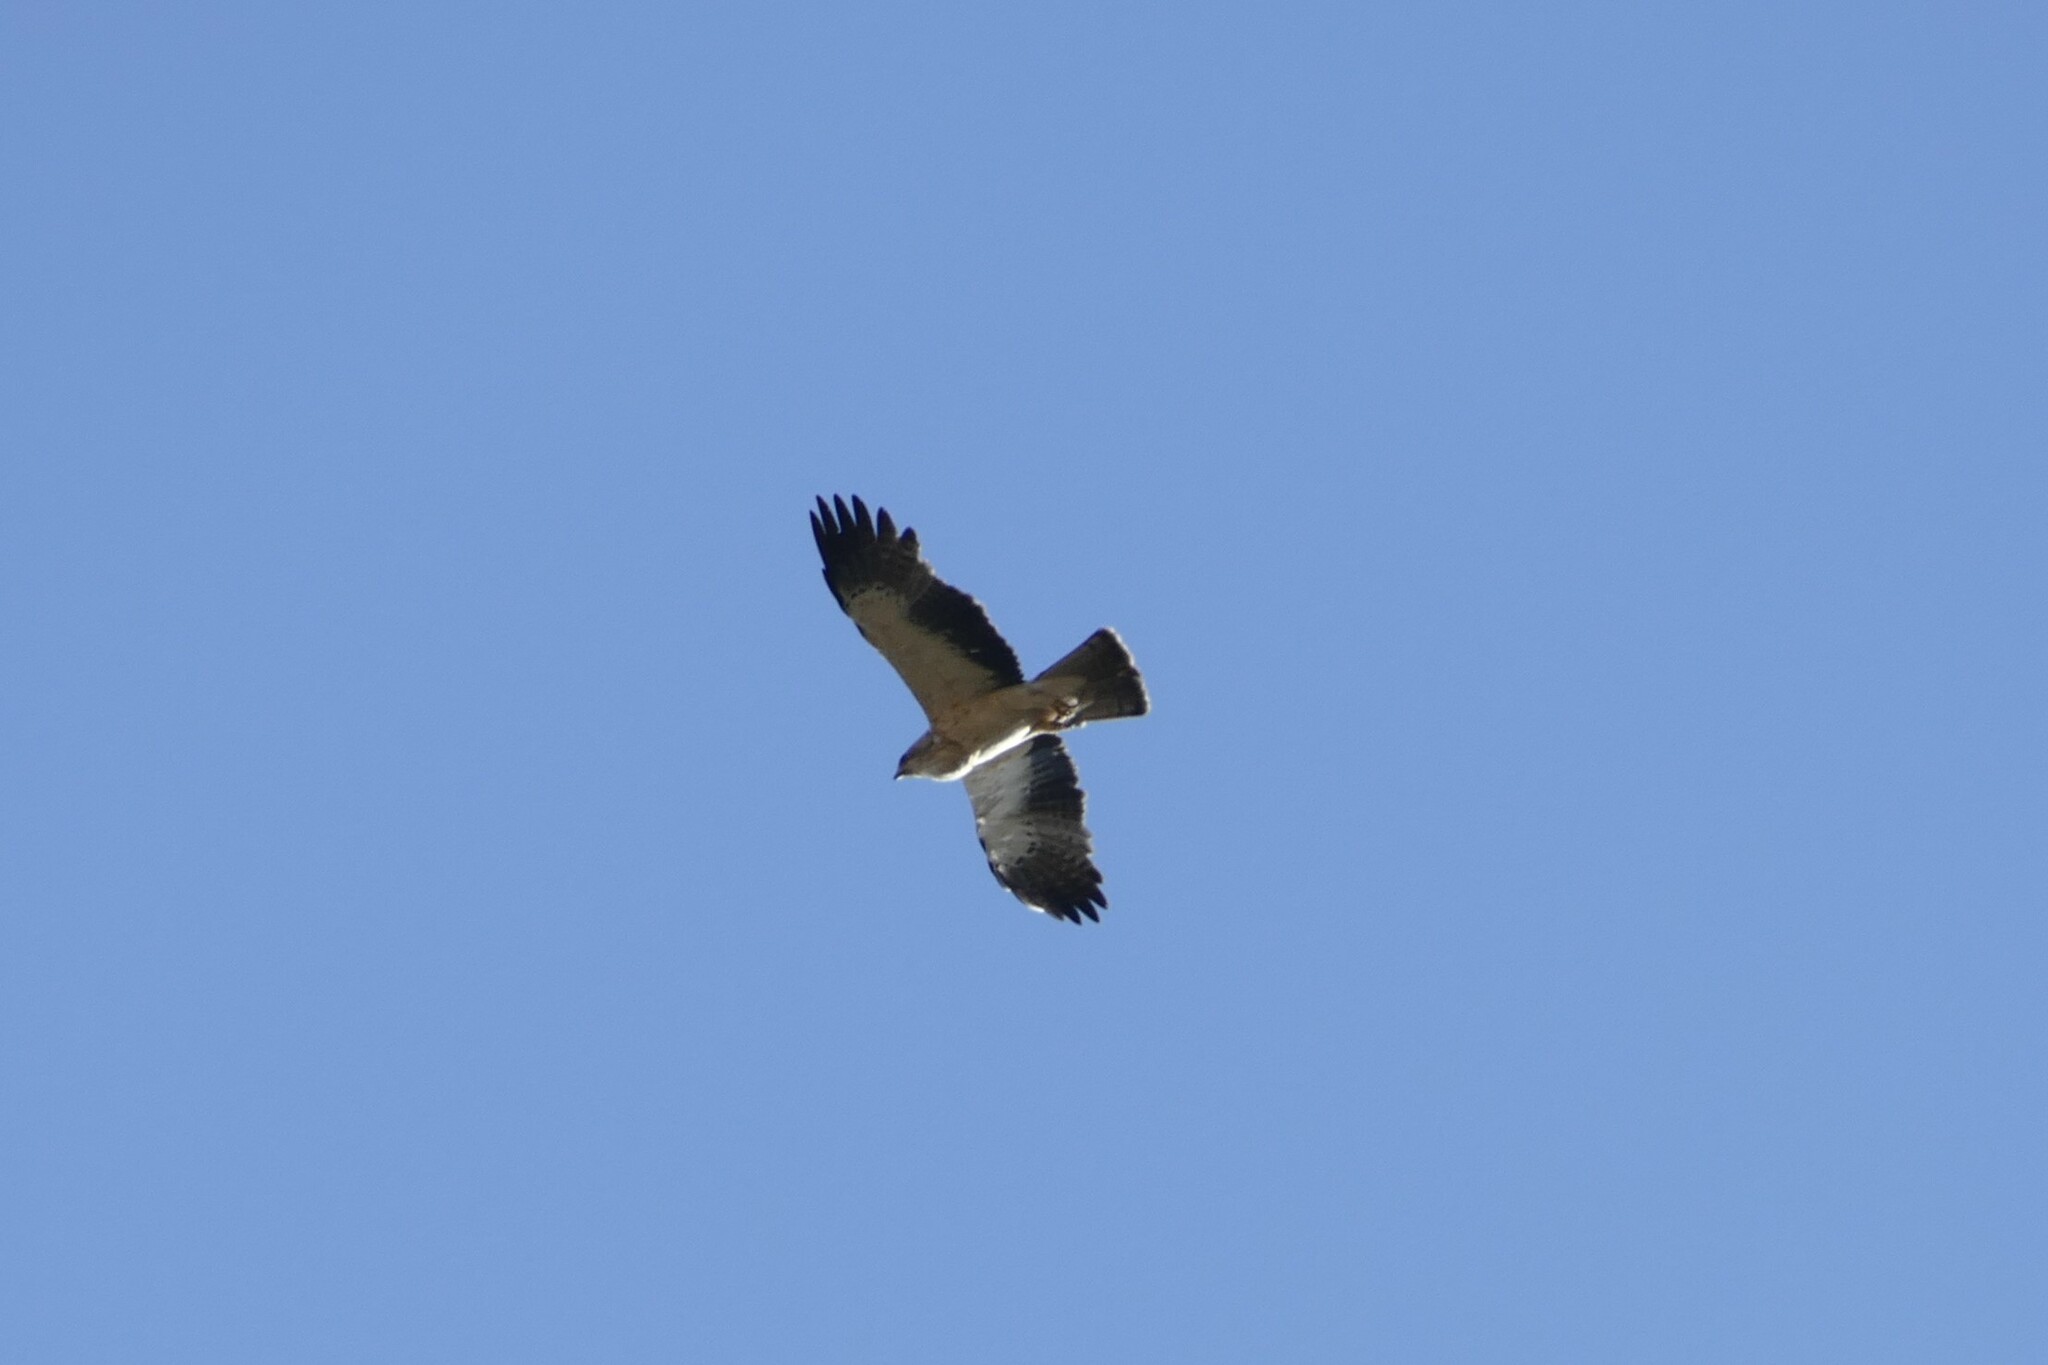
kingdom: Animalia
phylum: Chordata
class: Aves
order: Accipitriformes
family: Accipitridae
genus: Hieraaetus
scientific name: Hieraaetus pennatus
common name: Booted eagle
